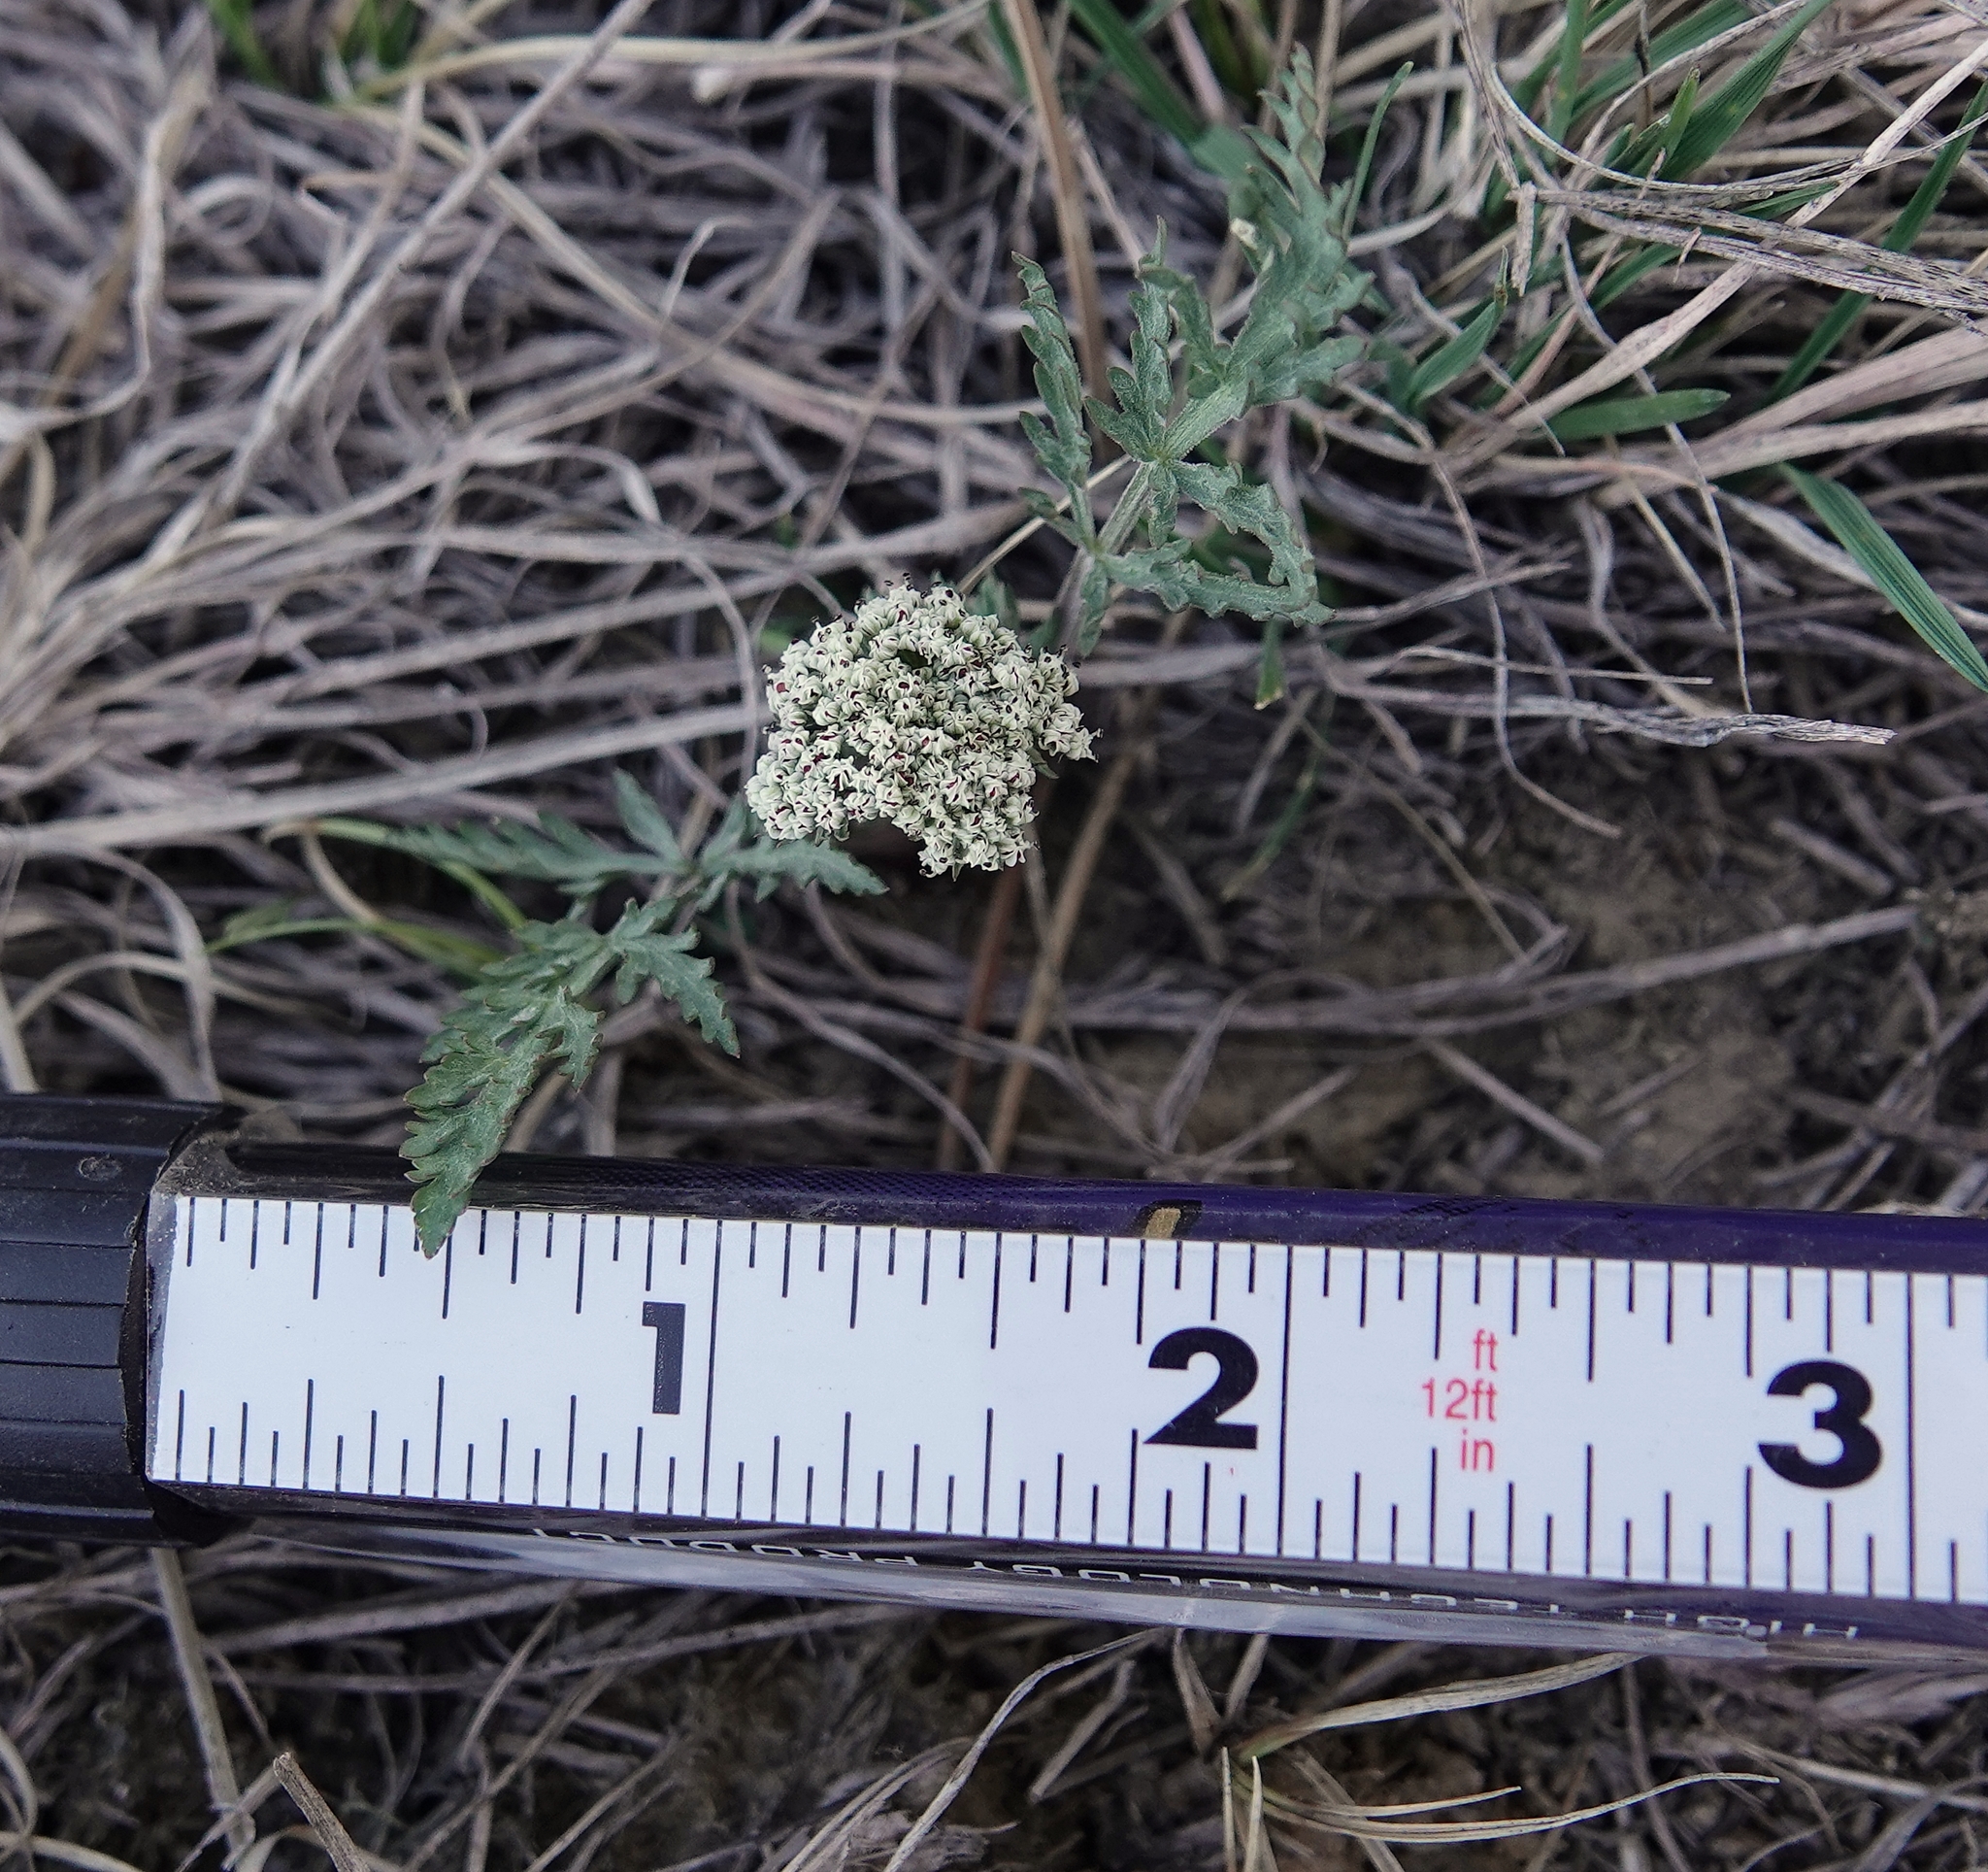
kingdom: Plantae
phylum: Tracheophyta
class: Magnoliopsida
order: Apiales
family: Apiaceae
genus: Lomatium
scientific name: Lomatium orientale
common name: Eastern cous
